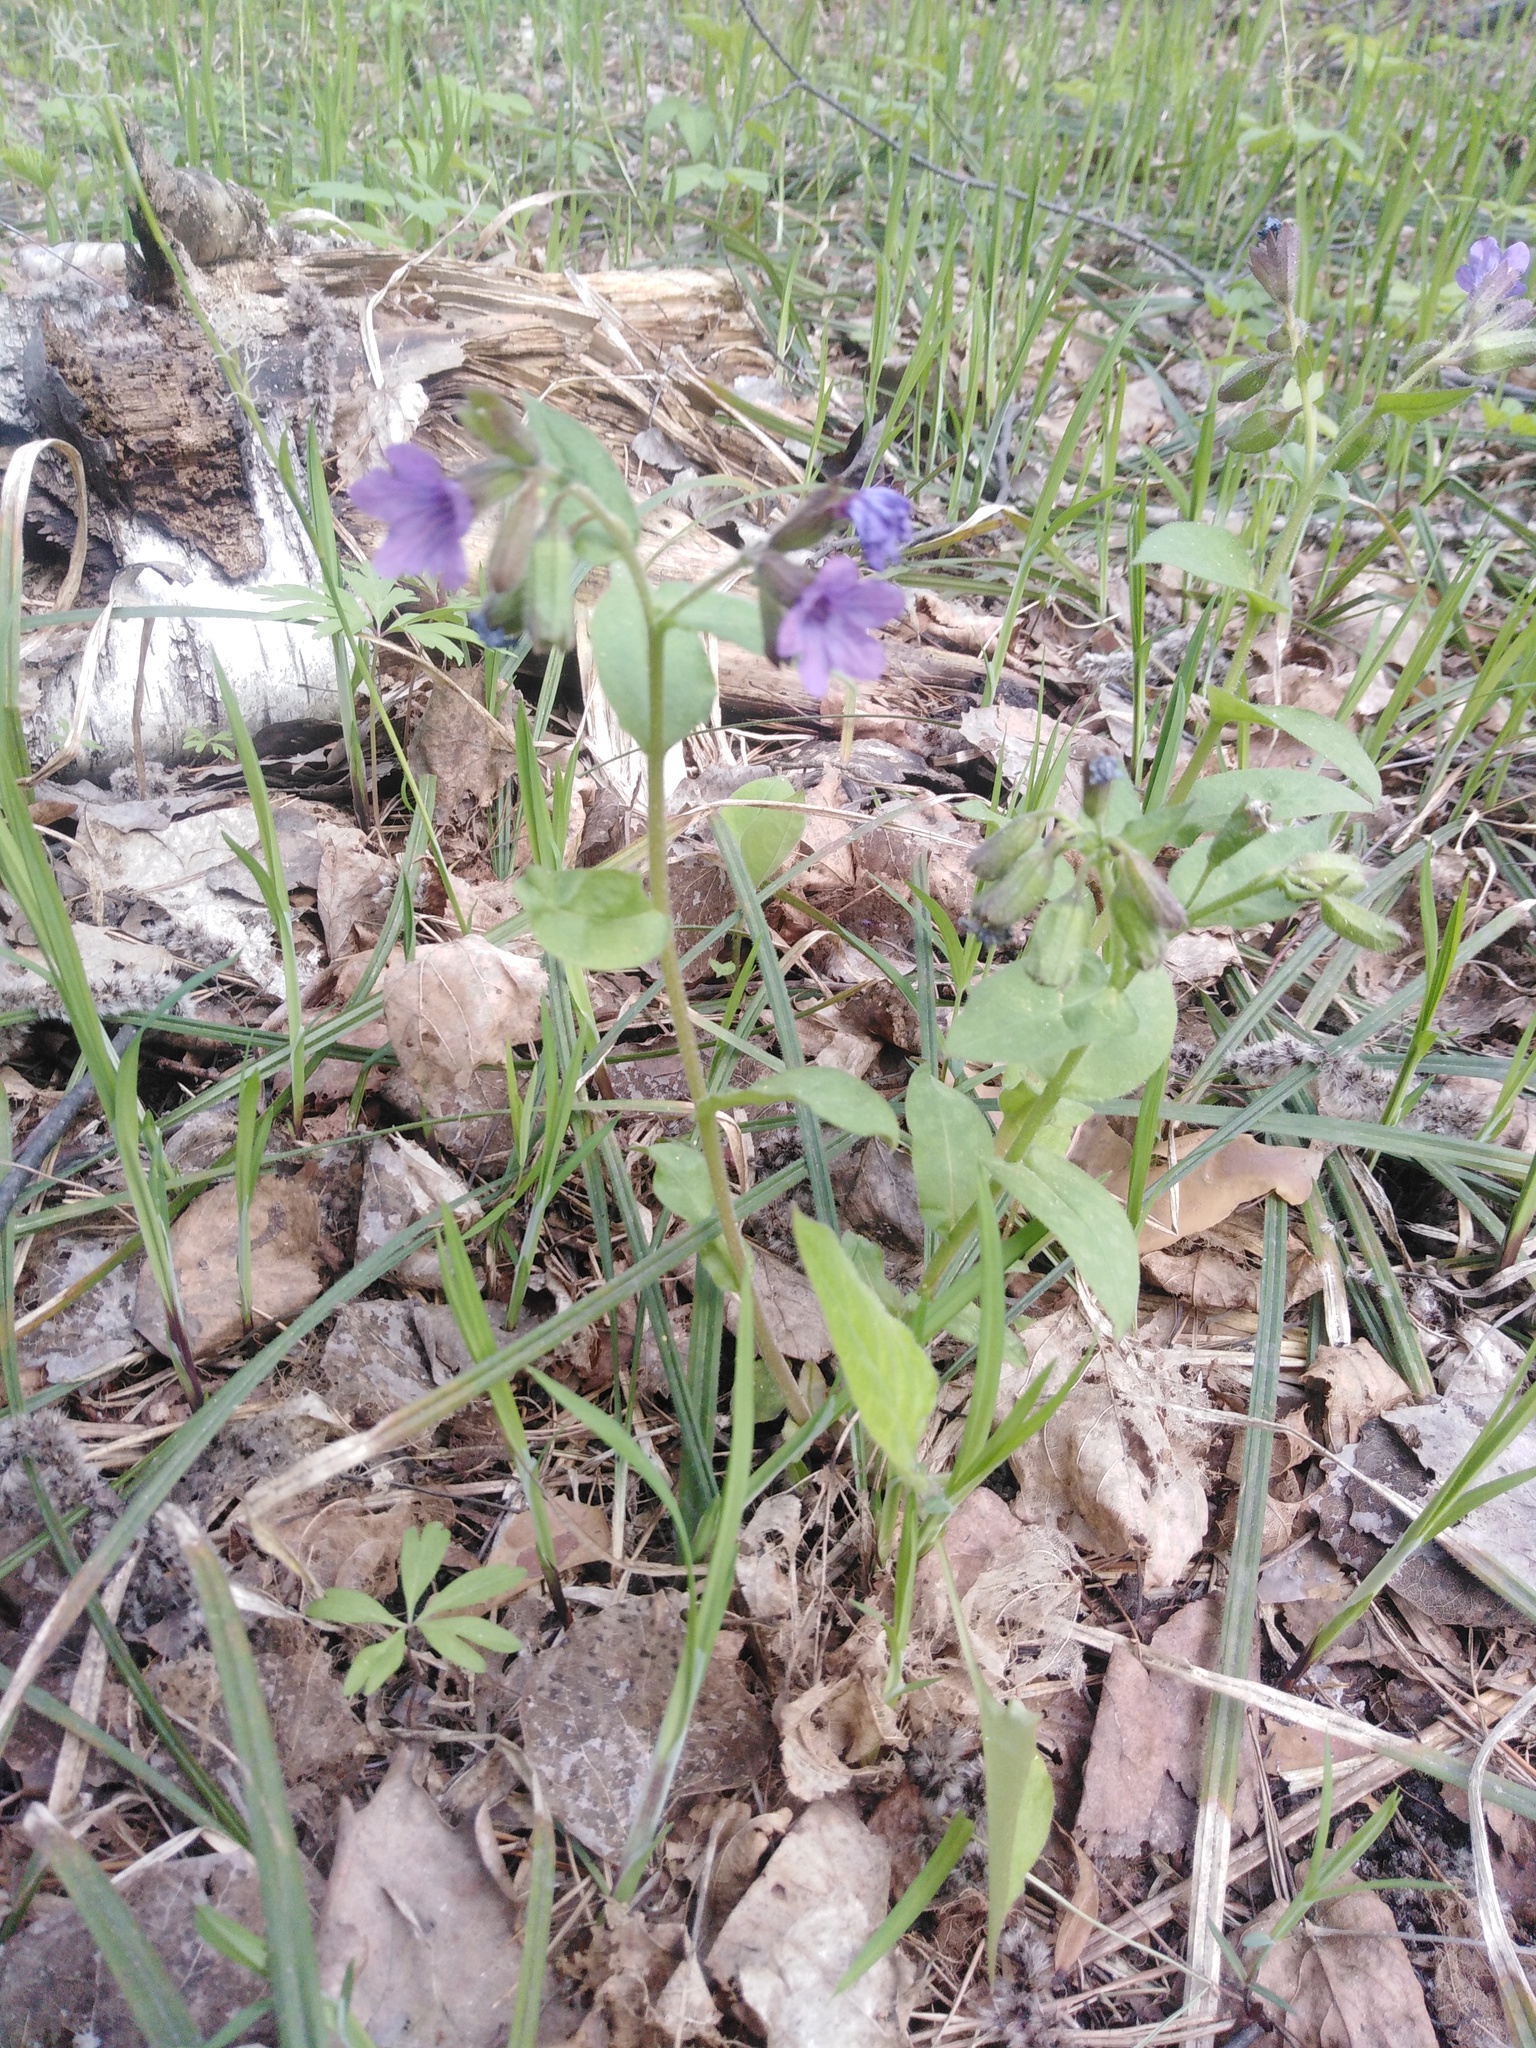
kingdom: Plantae
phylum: Tracheophyta
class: Magnoliopsida
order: Boraginales
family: Boraginaceae
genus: Pulmonaria
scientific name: Pulmonaria obscura
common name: Suffolk lungwort
